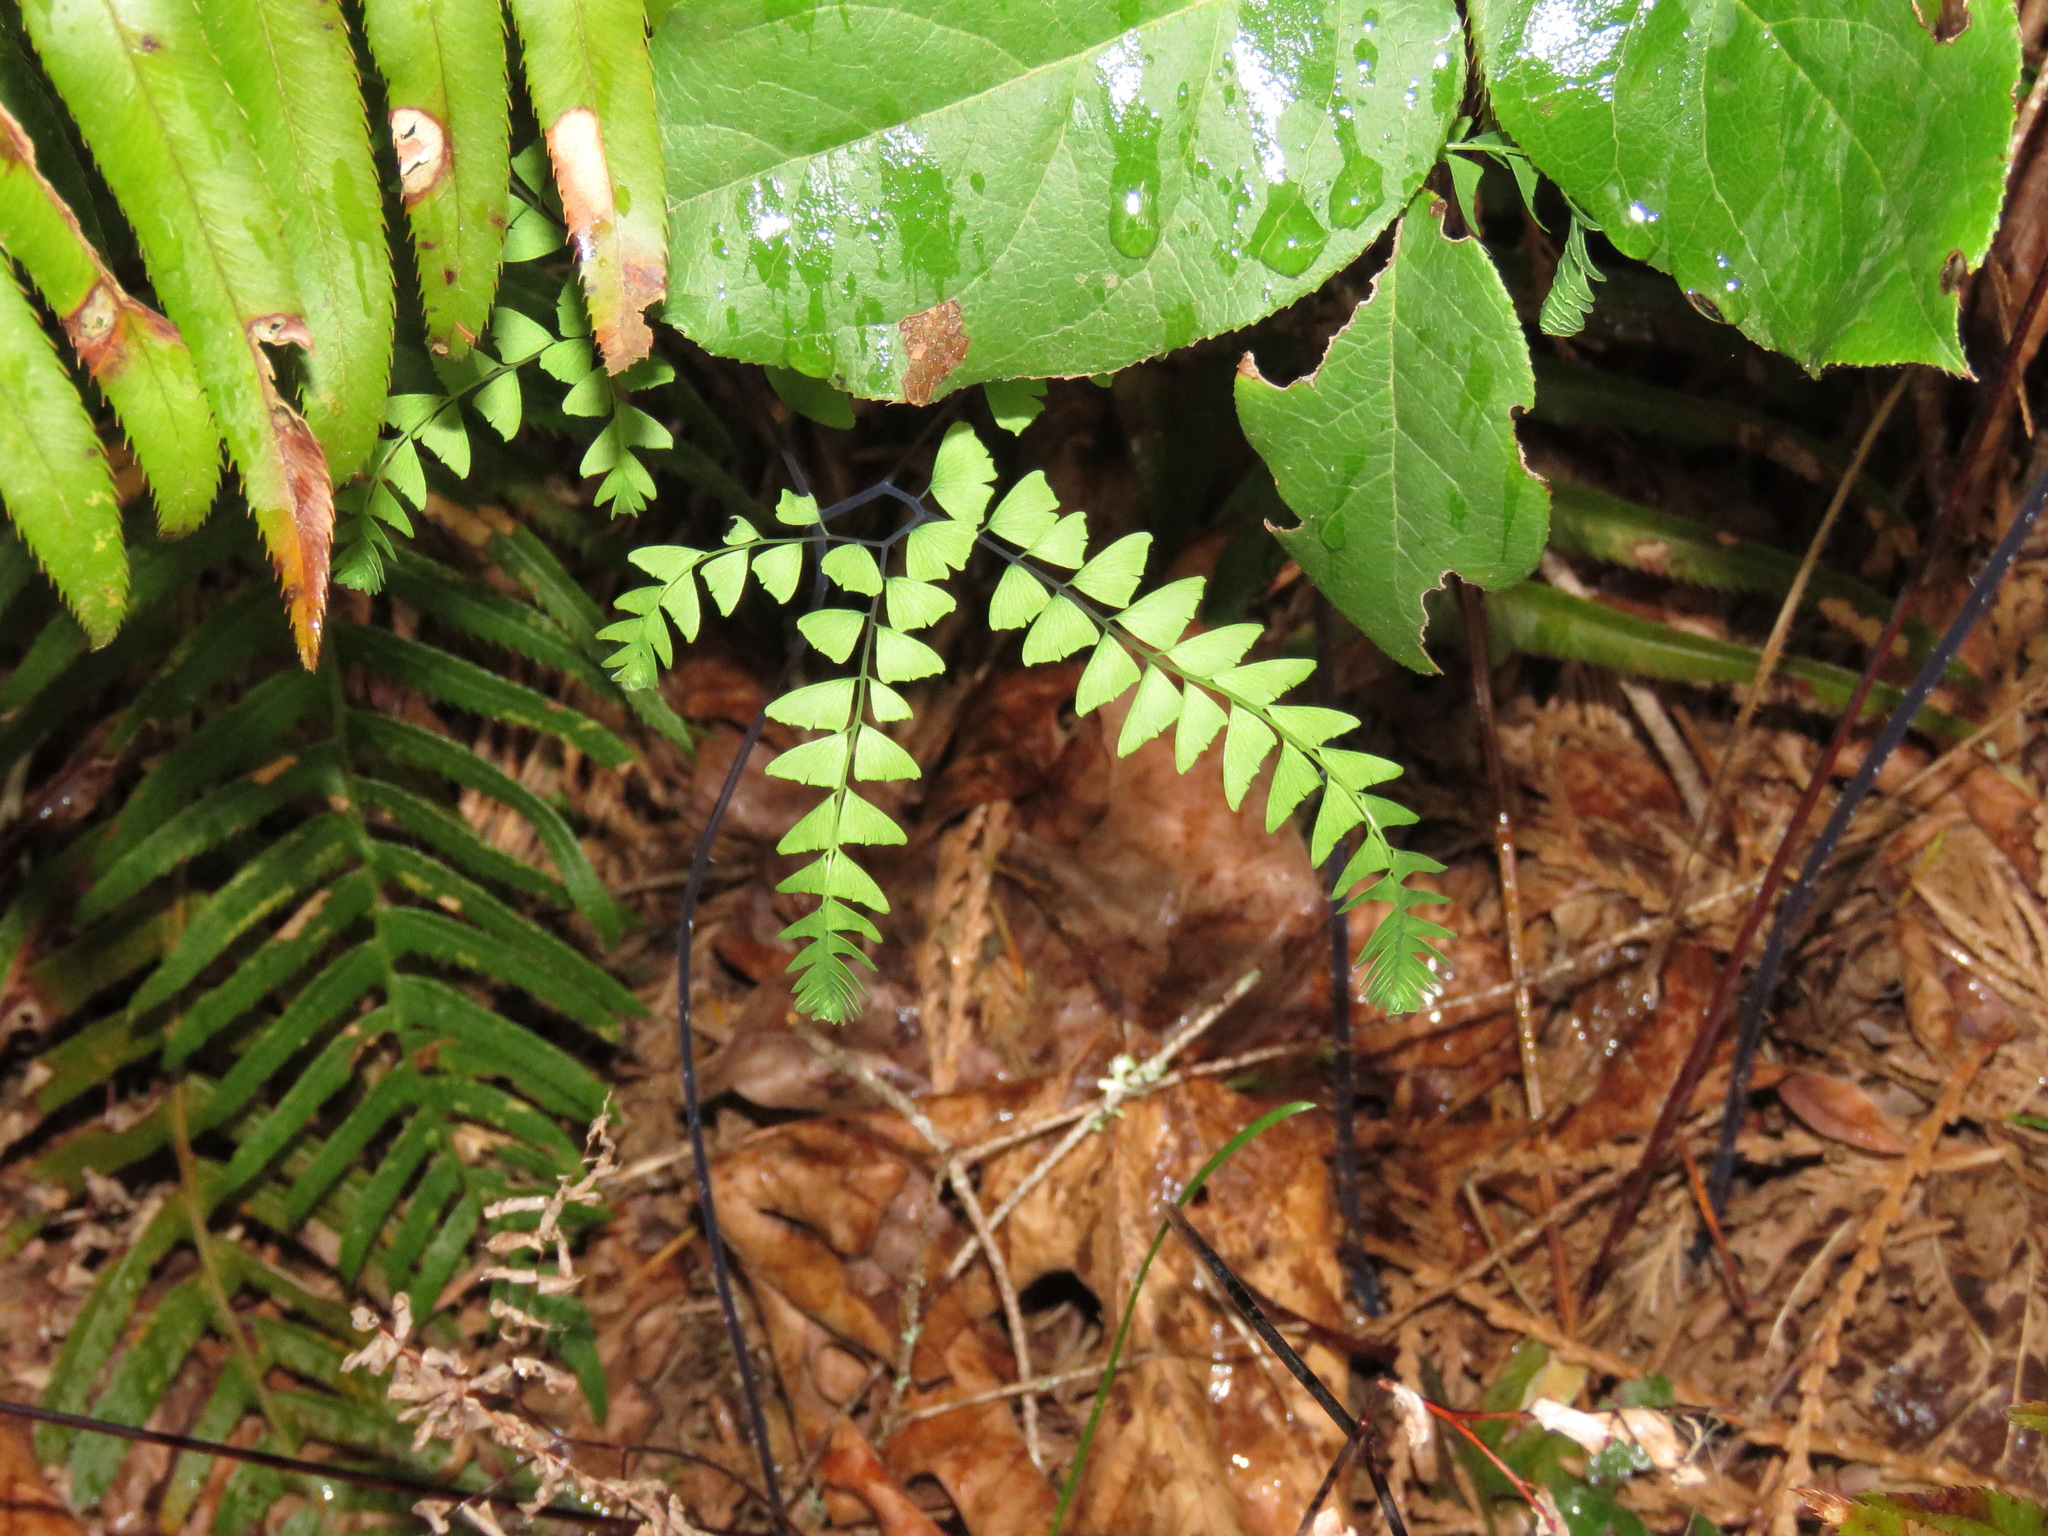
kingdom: Plantae
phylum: Tracheophyta
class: Polypodiopsida
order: Polypodiales
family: Pteridaceae
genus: Adiantum
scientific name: Adiantum aleuticum
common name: Aleutian maidenhair fern
